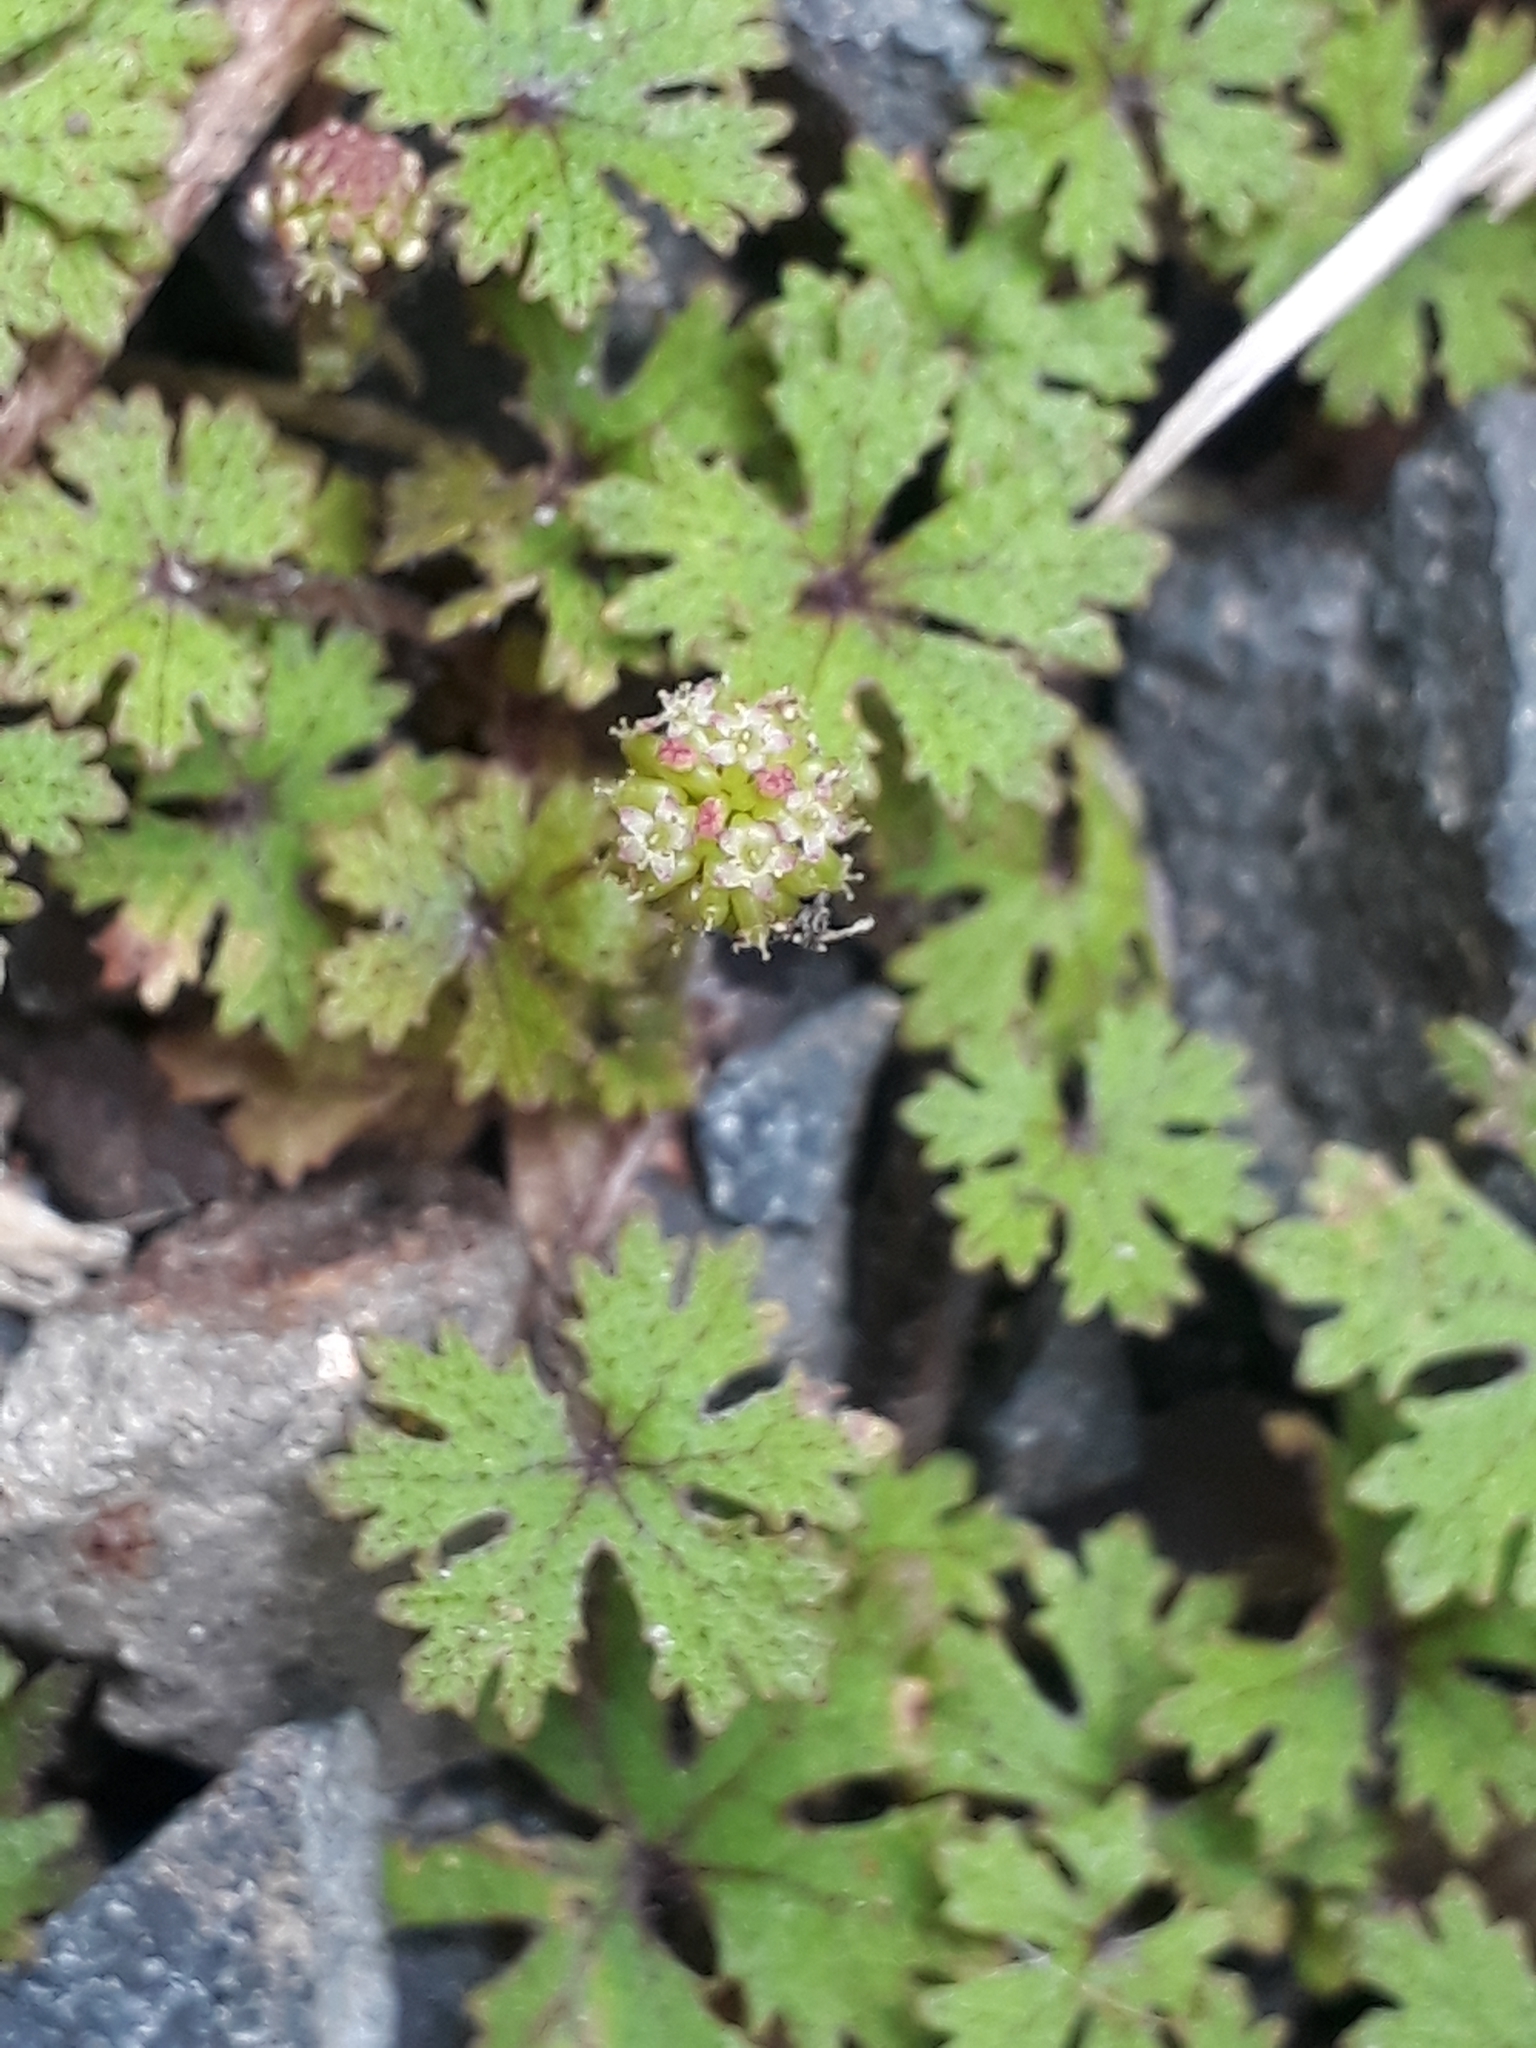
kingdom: Plantae
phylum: Tracheophyta
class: Magnoliopsida
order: Apiales
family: Araliaceae
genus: Hydrocotyle
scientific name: Hydrocotyle dissecta
